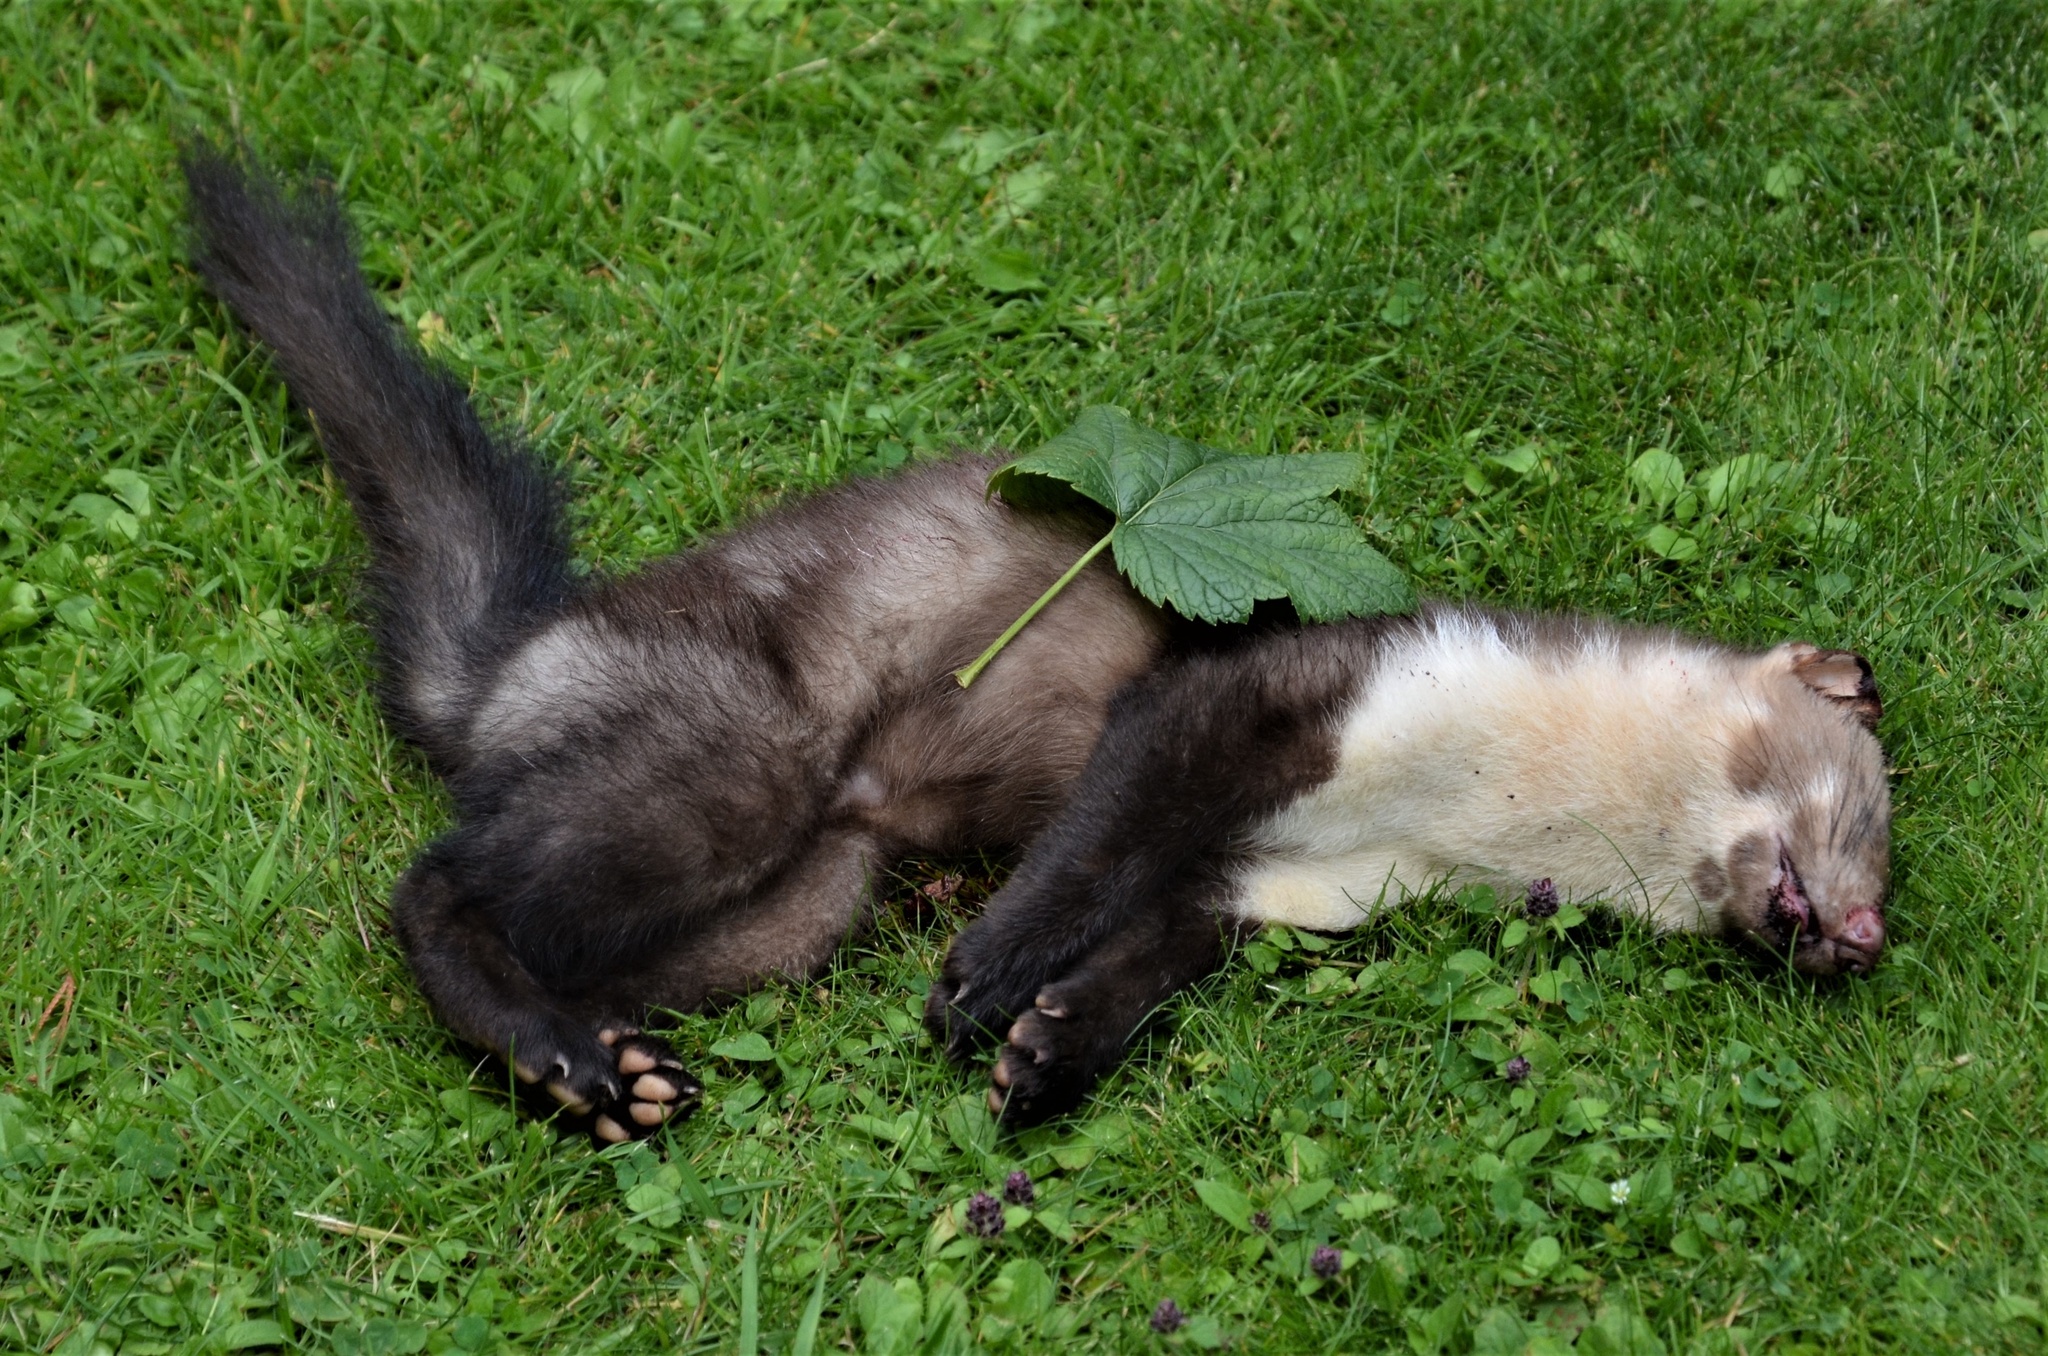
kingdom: Animalia
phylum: Chordata
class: Mammalia
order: Carnivora
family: Mustelidae
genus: Martes
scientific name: Martes foina
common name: Beech marten
